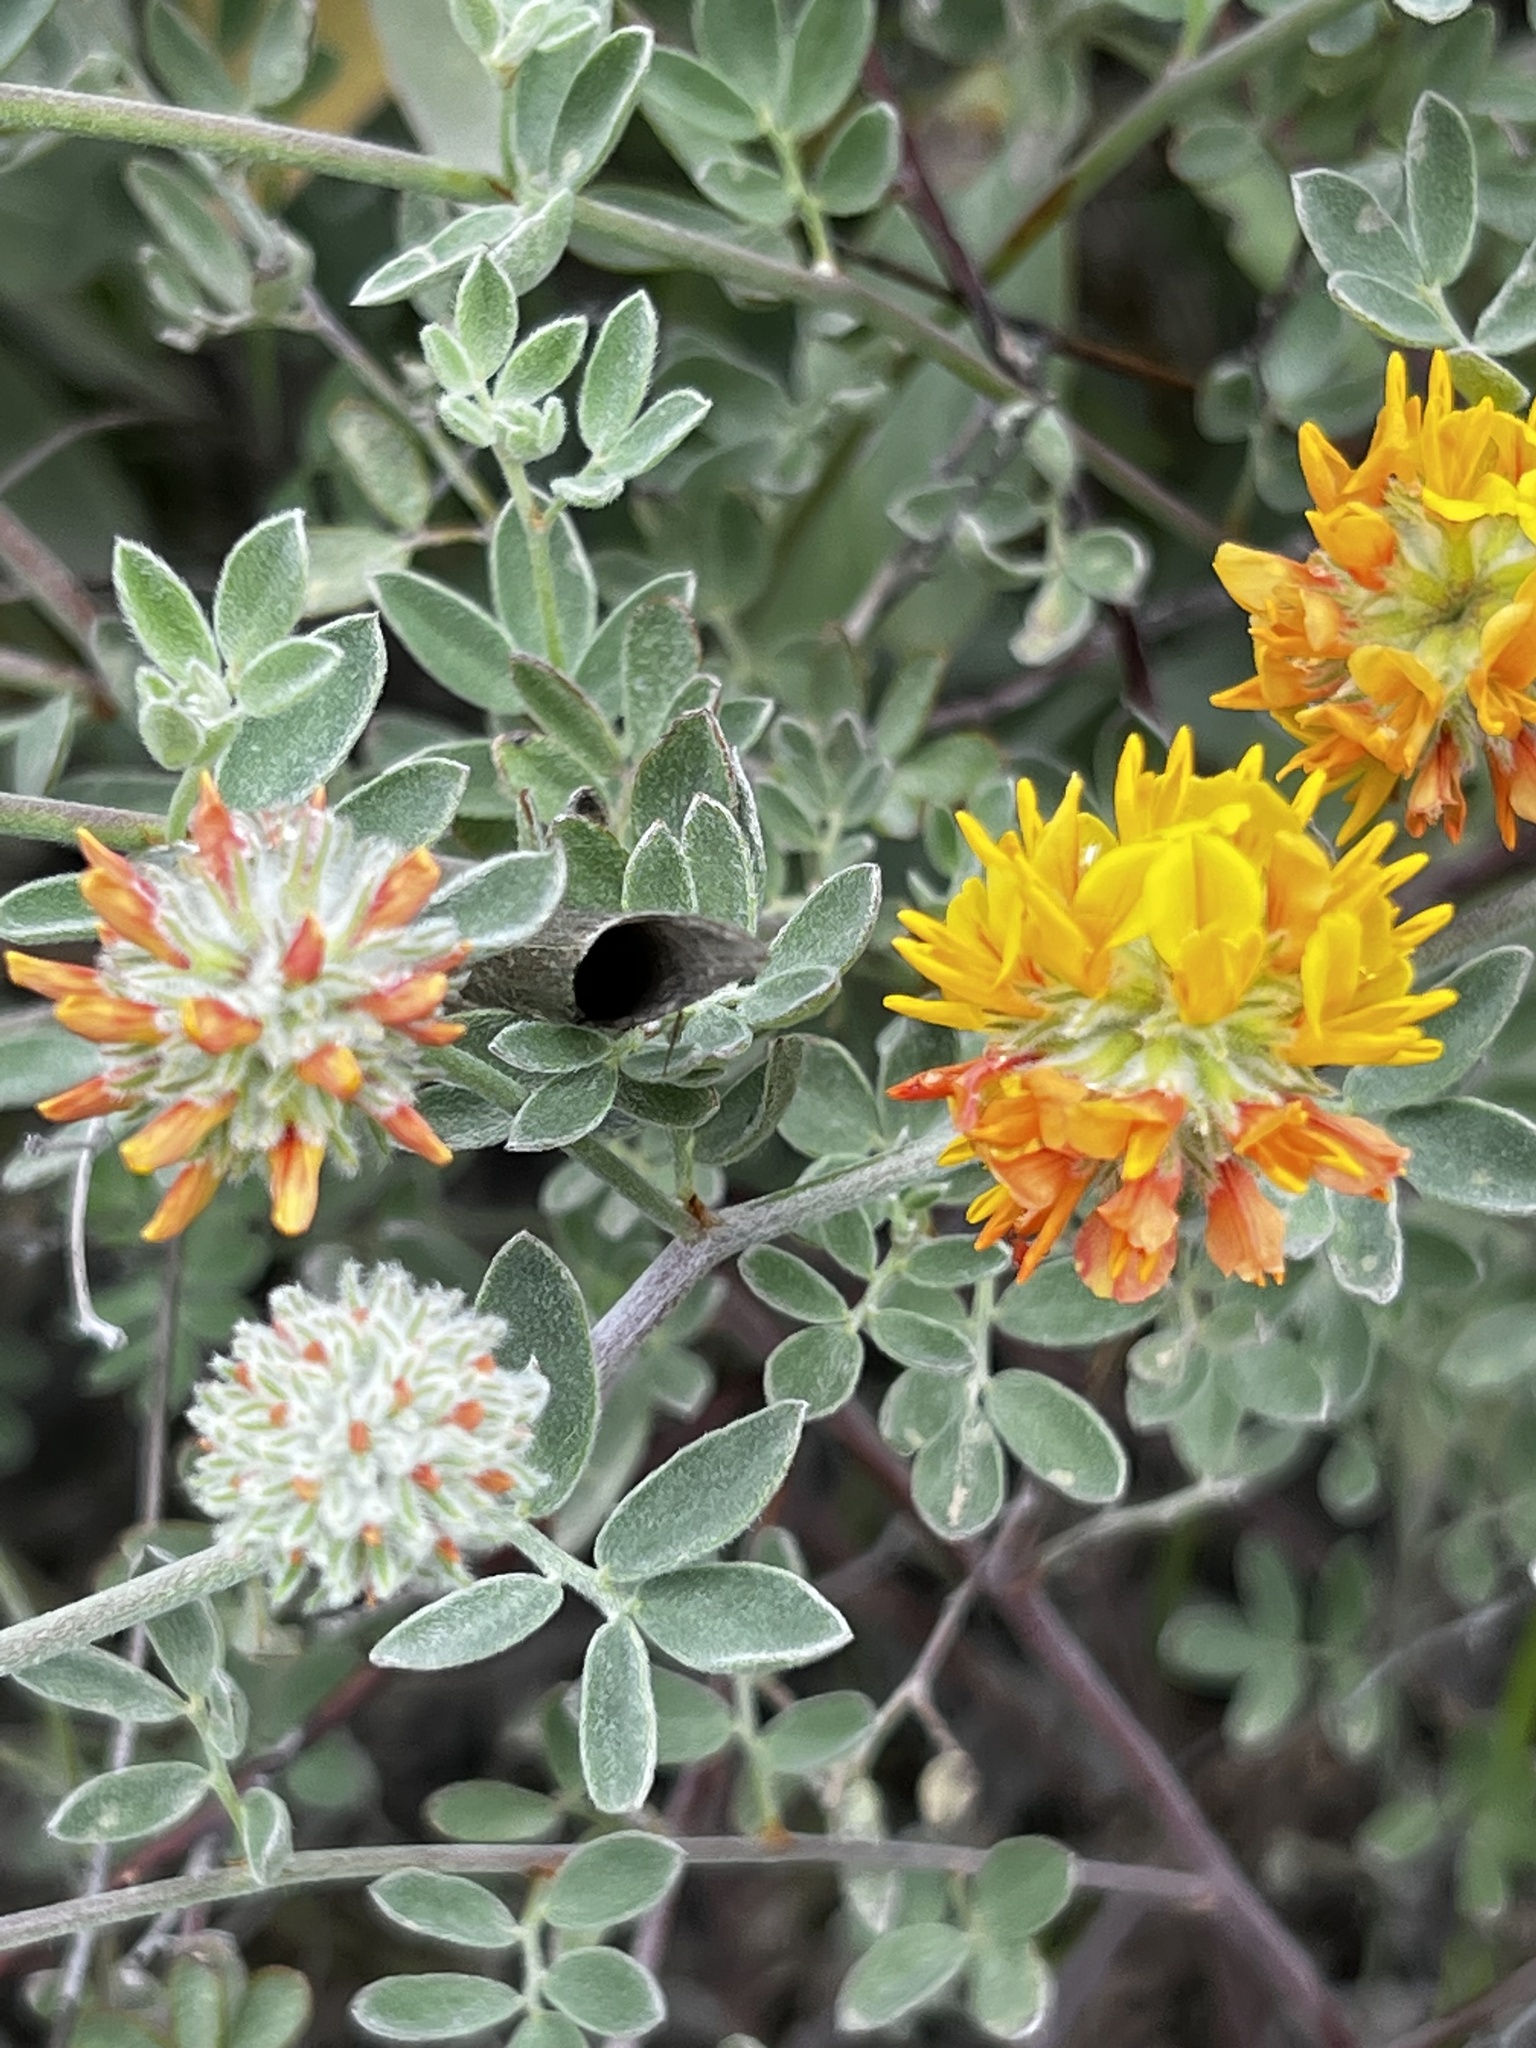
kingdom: Plantae
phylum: Tracheophyta
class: Magnoliopsida
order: Fabales
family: Fabaceae
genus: Acmispon
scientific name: Acmispon argophyllus
